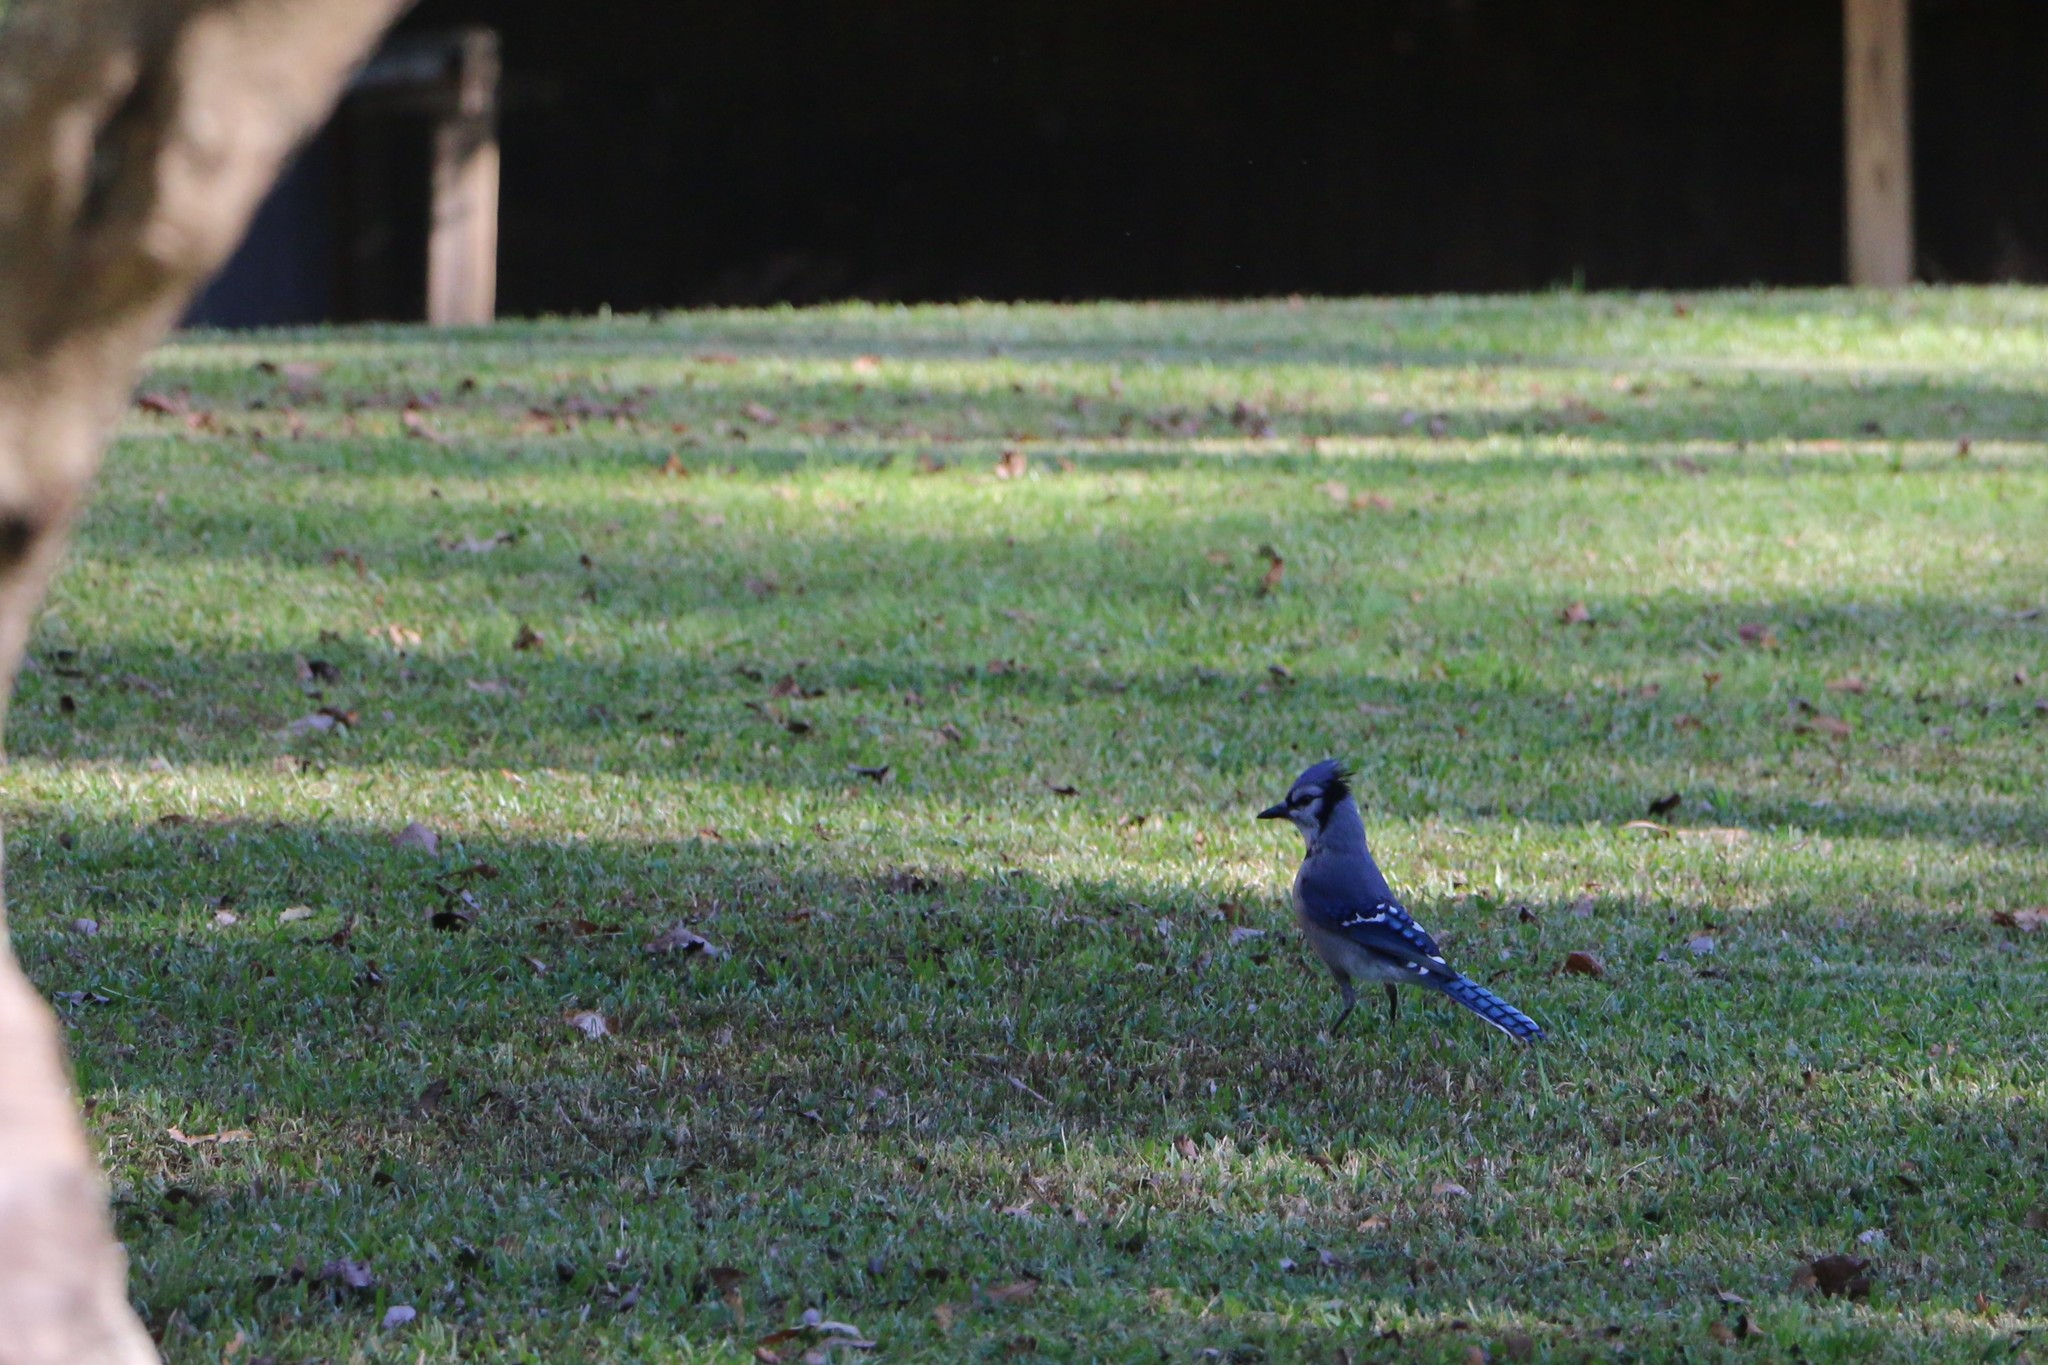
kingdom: Animalia
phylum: Chordata
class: Aves
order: Passeriformes
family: Corvidae
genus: Cyanocitta
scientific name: Cyanocitta cristata
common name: Blue jay
